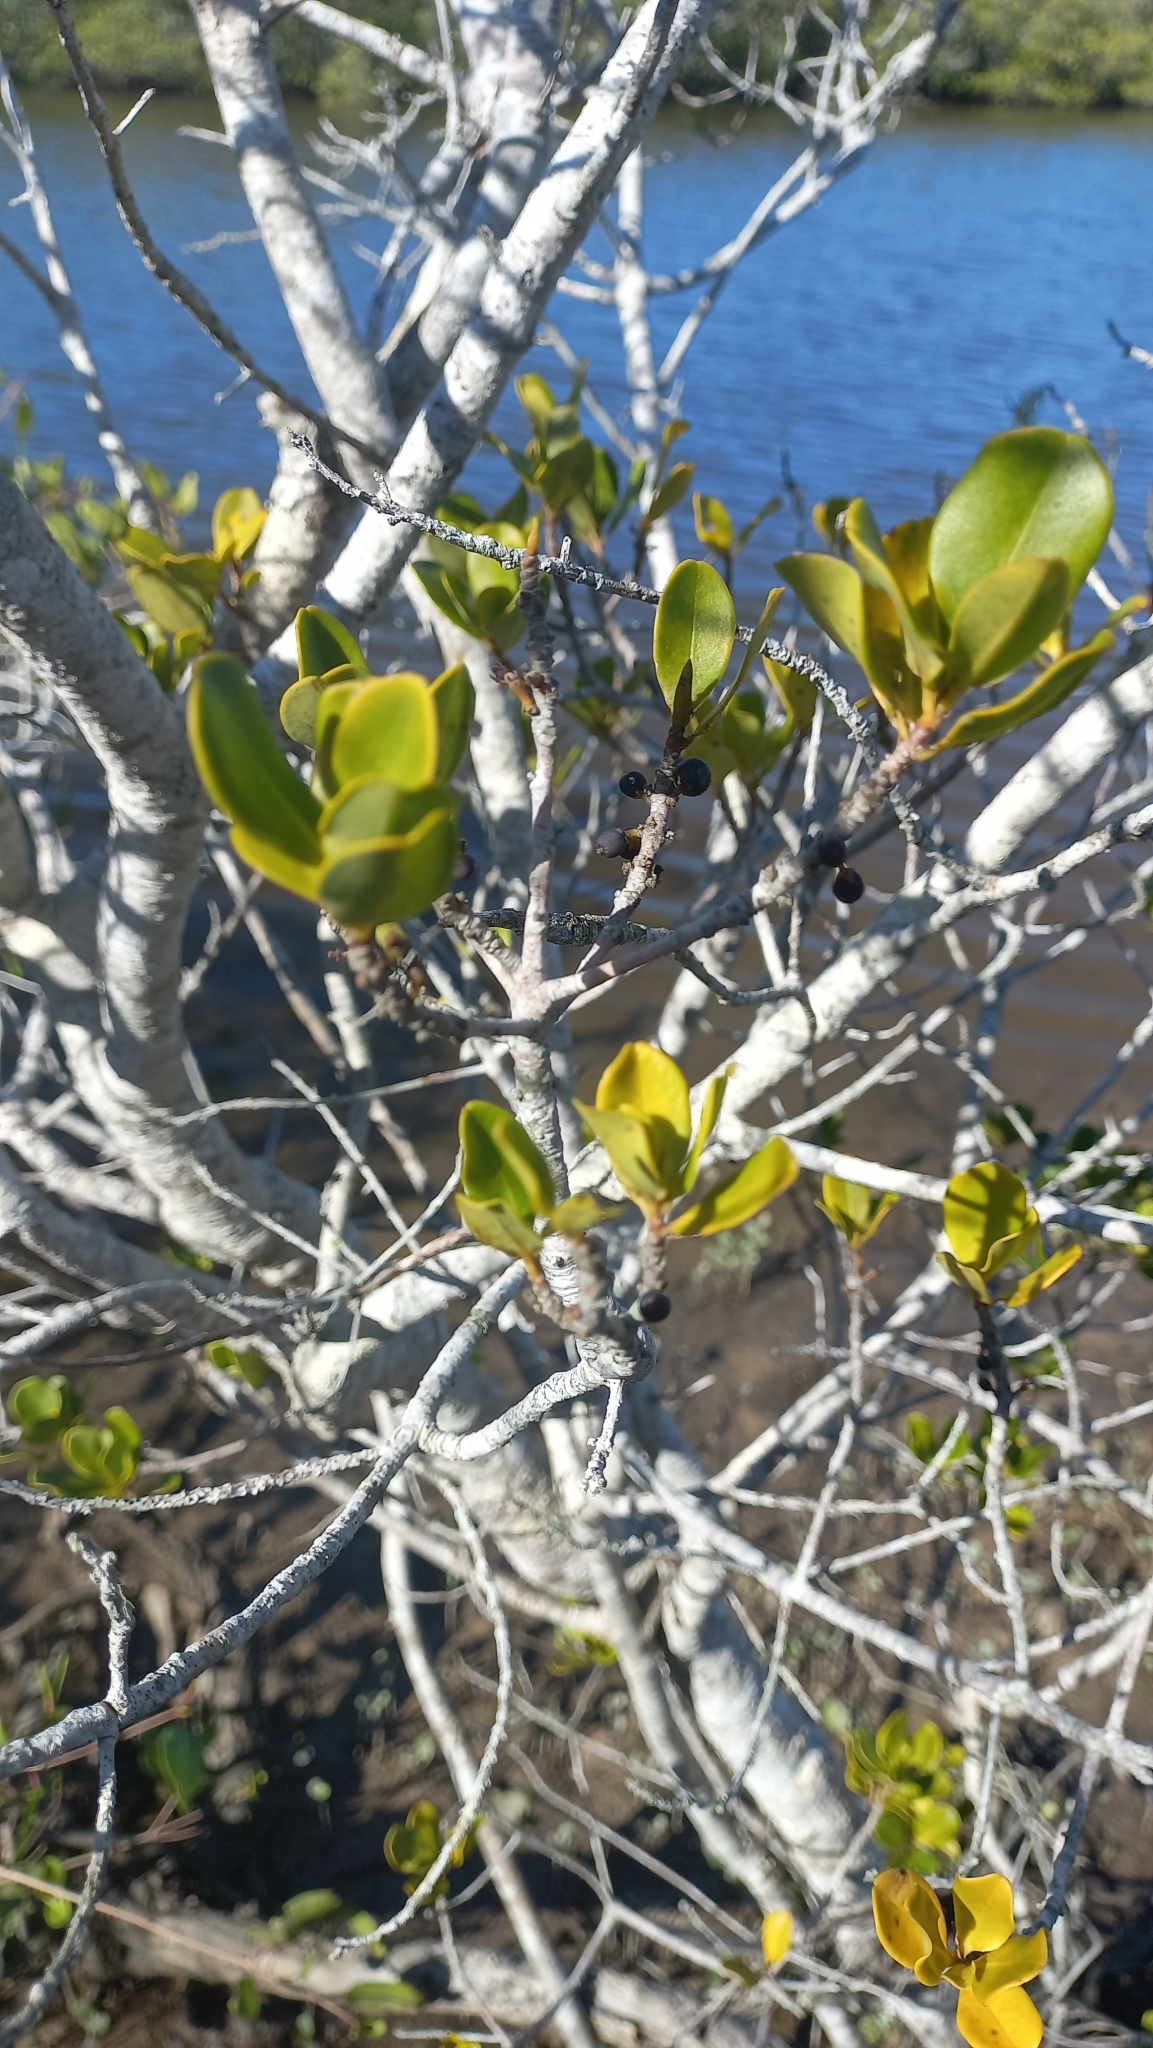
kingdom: Plantae
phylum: Tracheophyta
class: Magnoliopsida
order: Ericales
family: Primulaceae
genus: Myrsine
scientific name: Myrsine parvifolia
